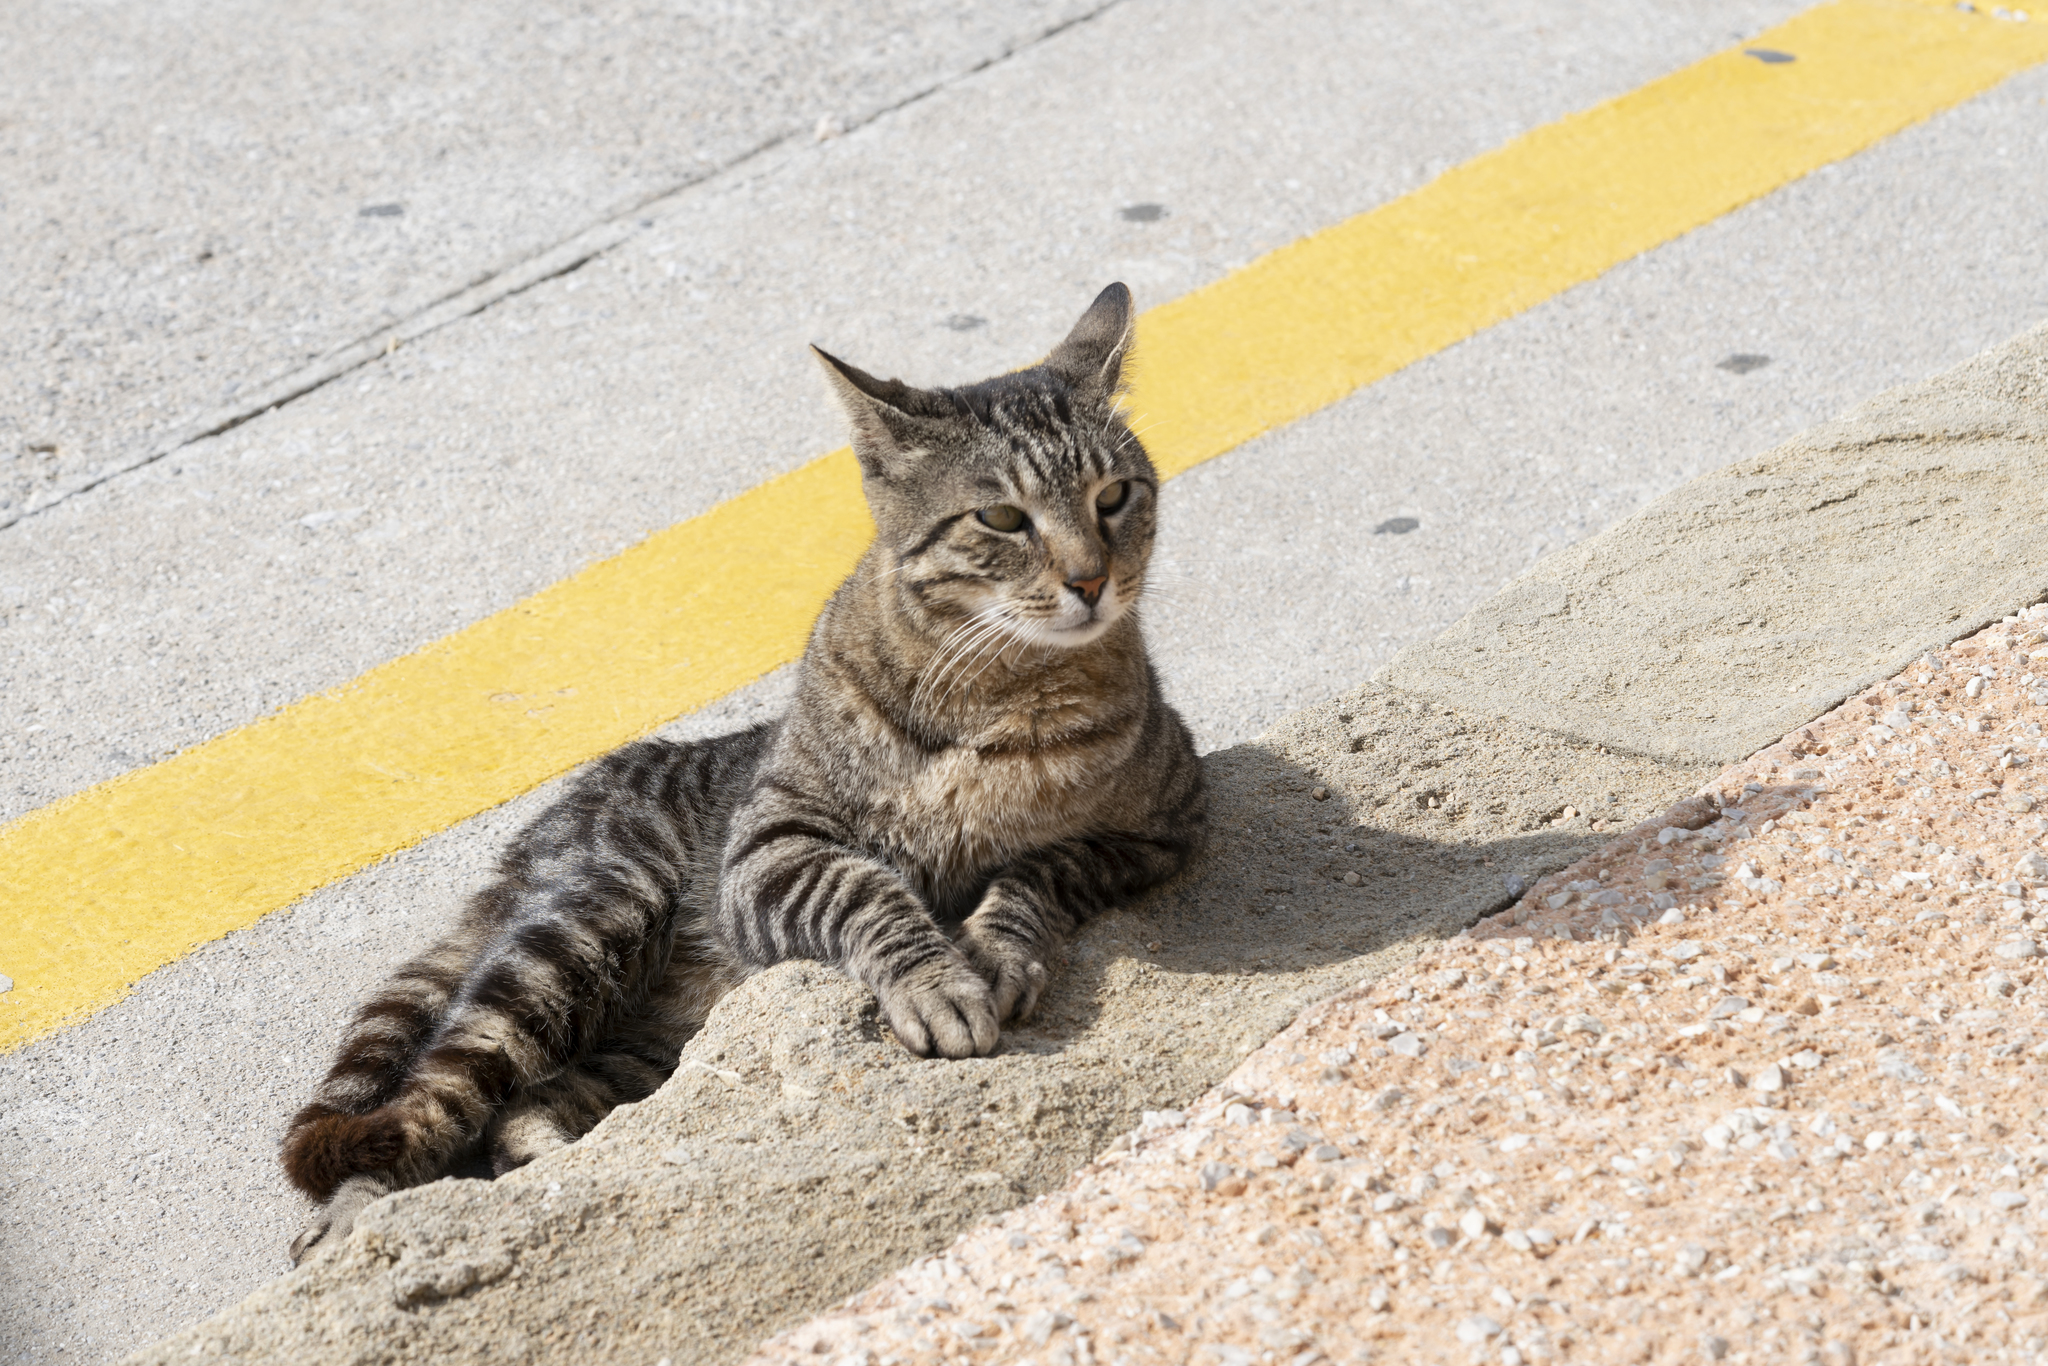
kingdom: Animalia
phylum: Chordata
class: Mammalia
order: Carnivora
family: Felidae
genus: Felis
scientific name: Felis catus
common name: Domestic cat
